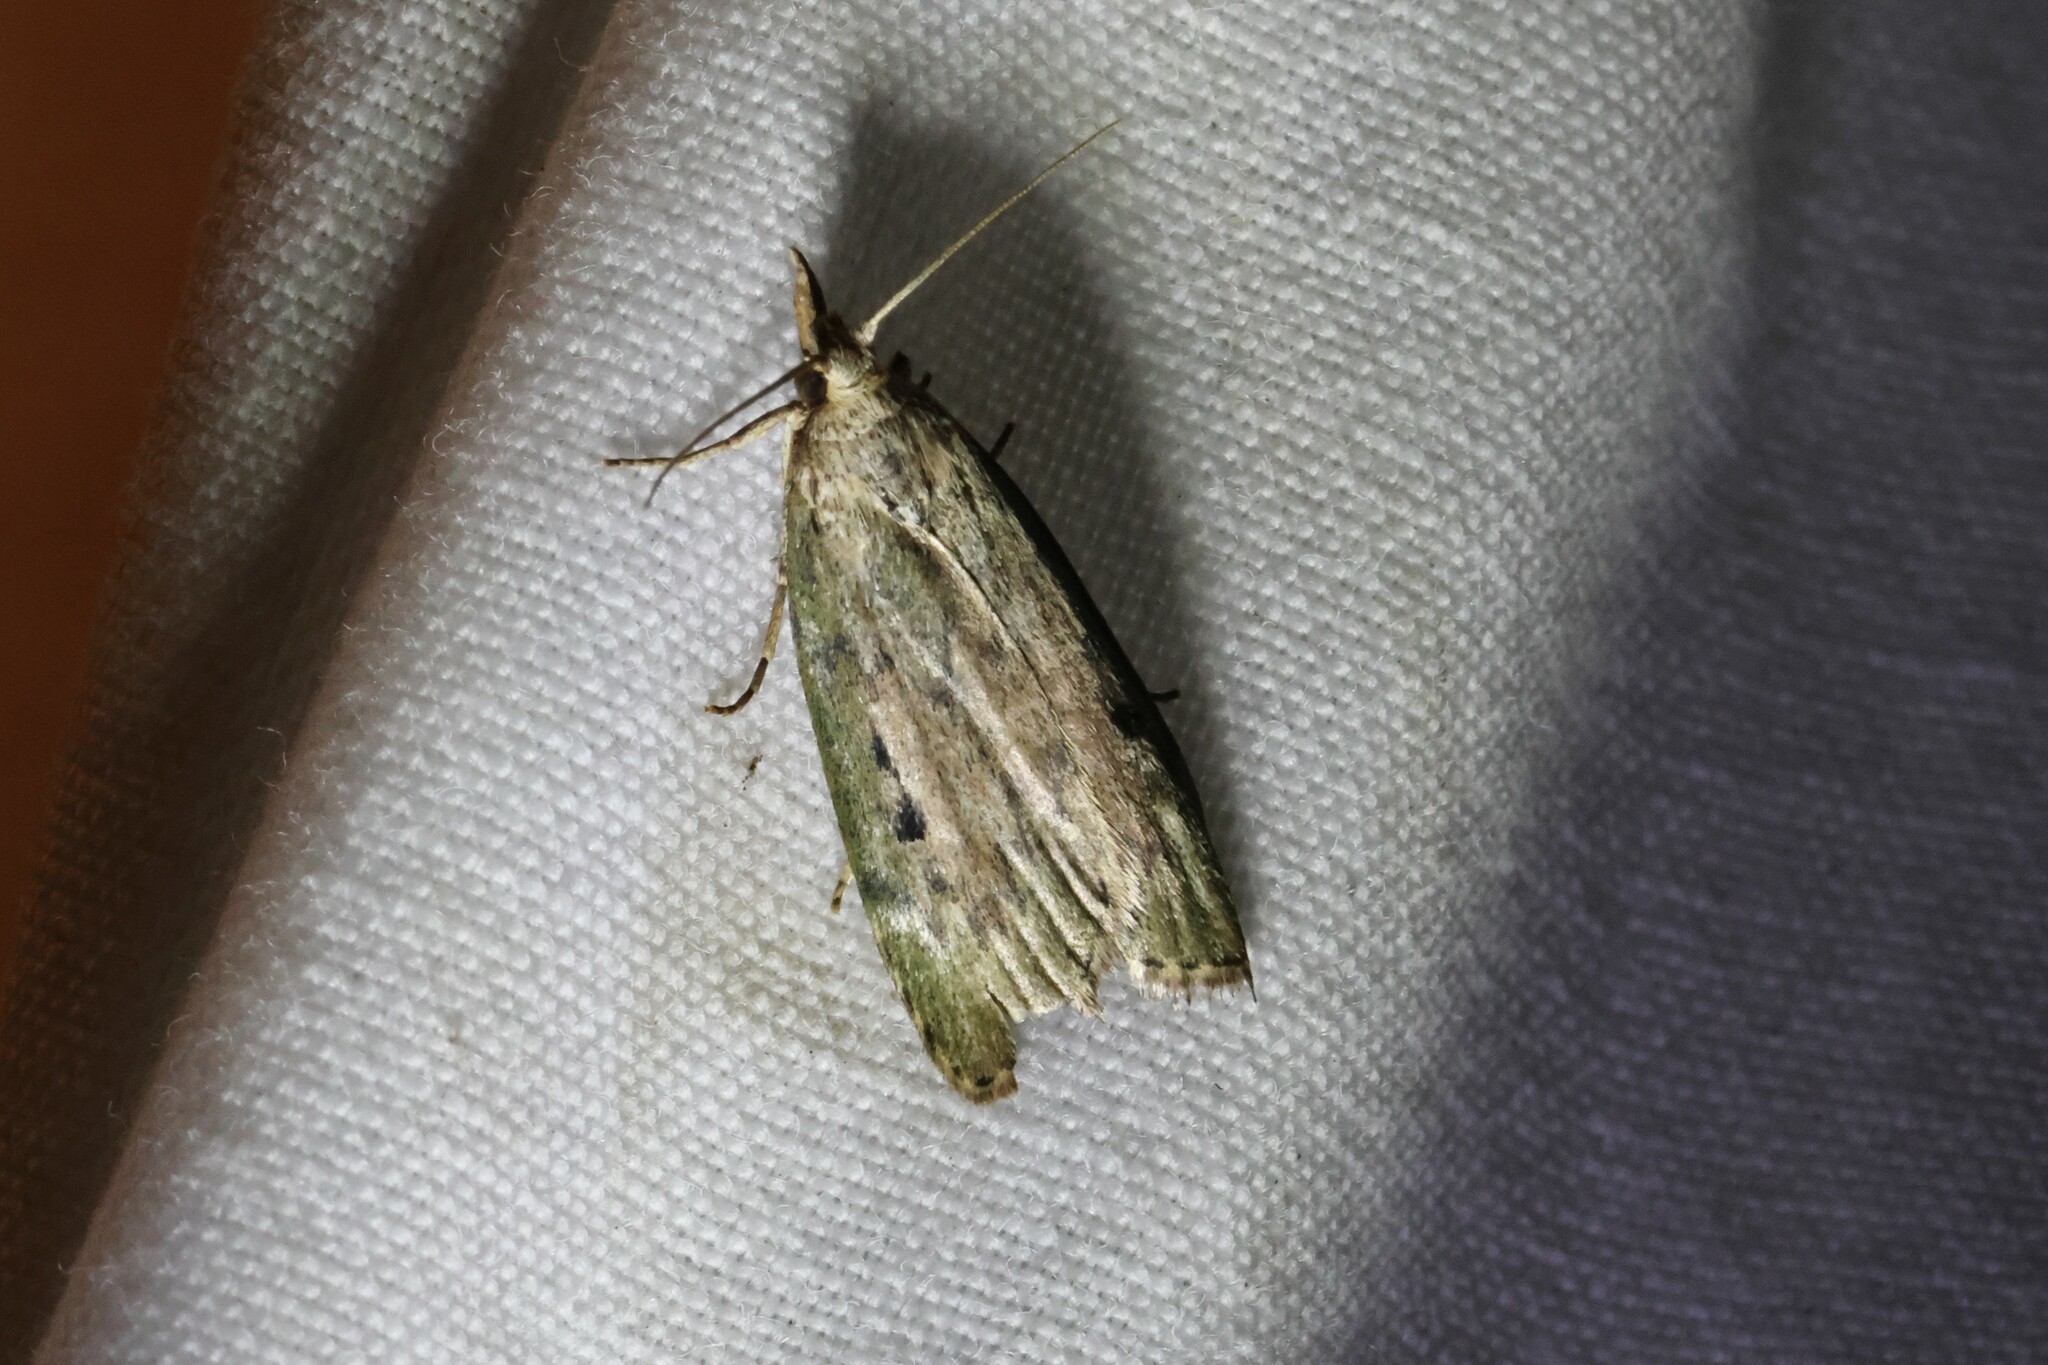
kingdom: Animalia
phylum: Arthropoda
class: Insecta
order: Lepidoptera
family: Pyralidae
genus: Aphomia
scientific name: Aphomia sociella
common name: Bee moth
